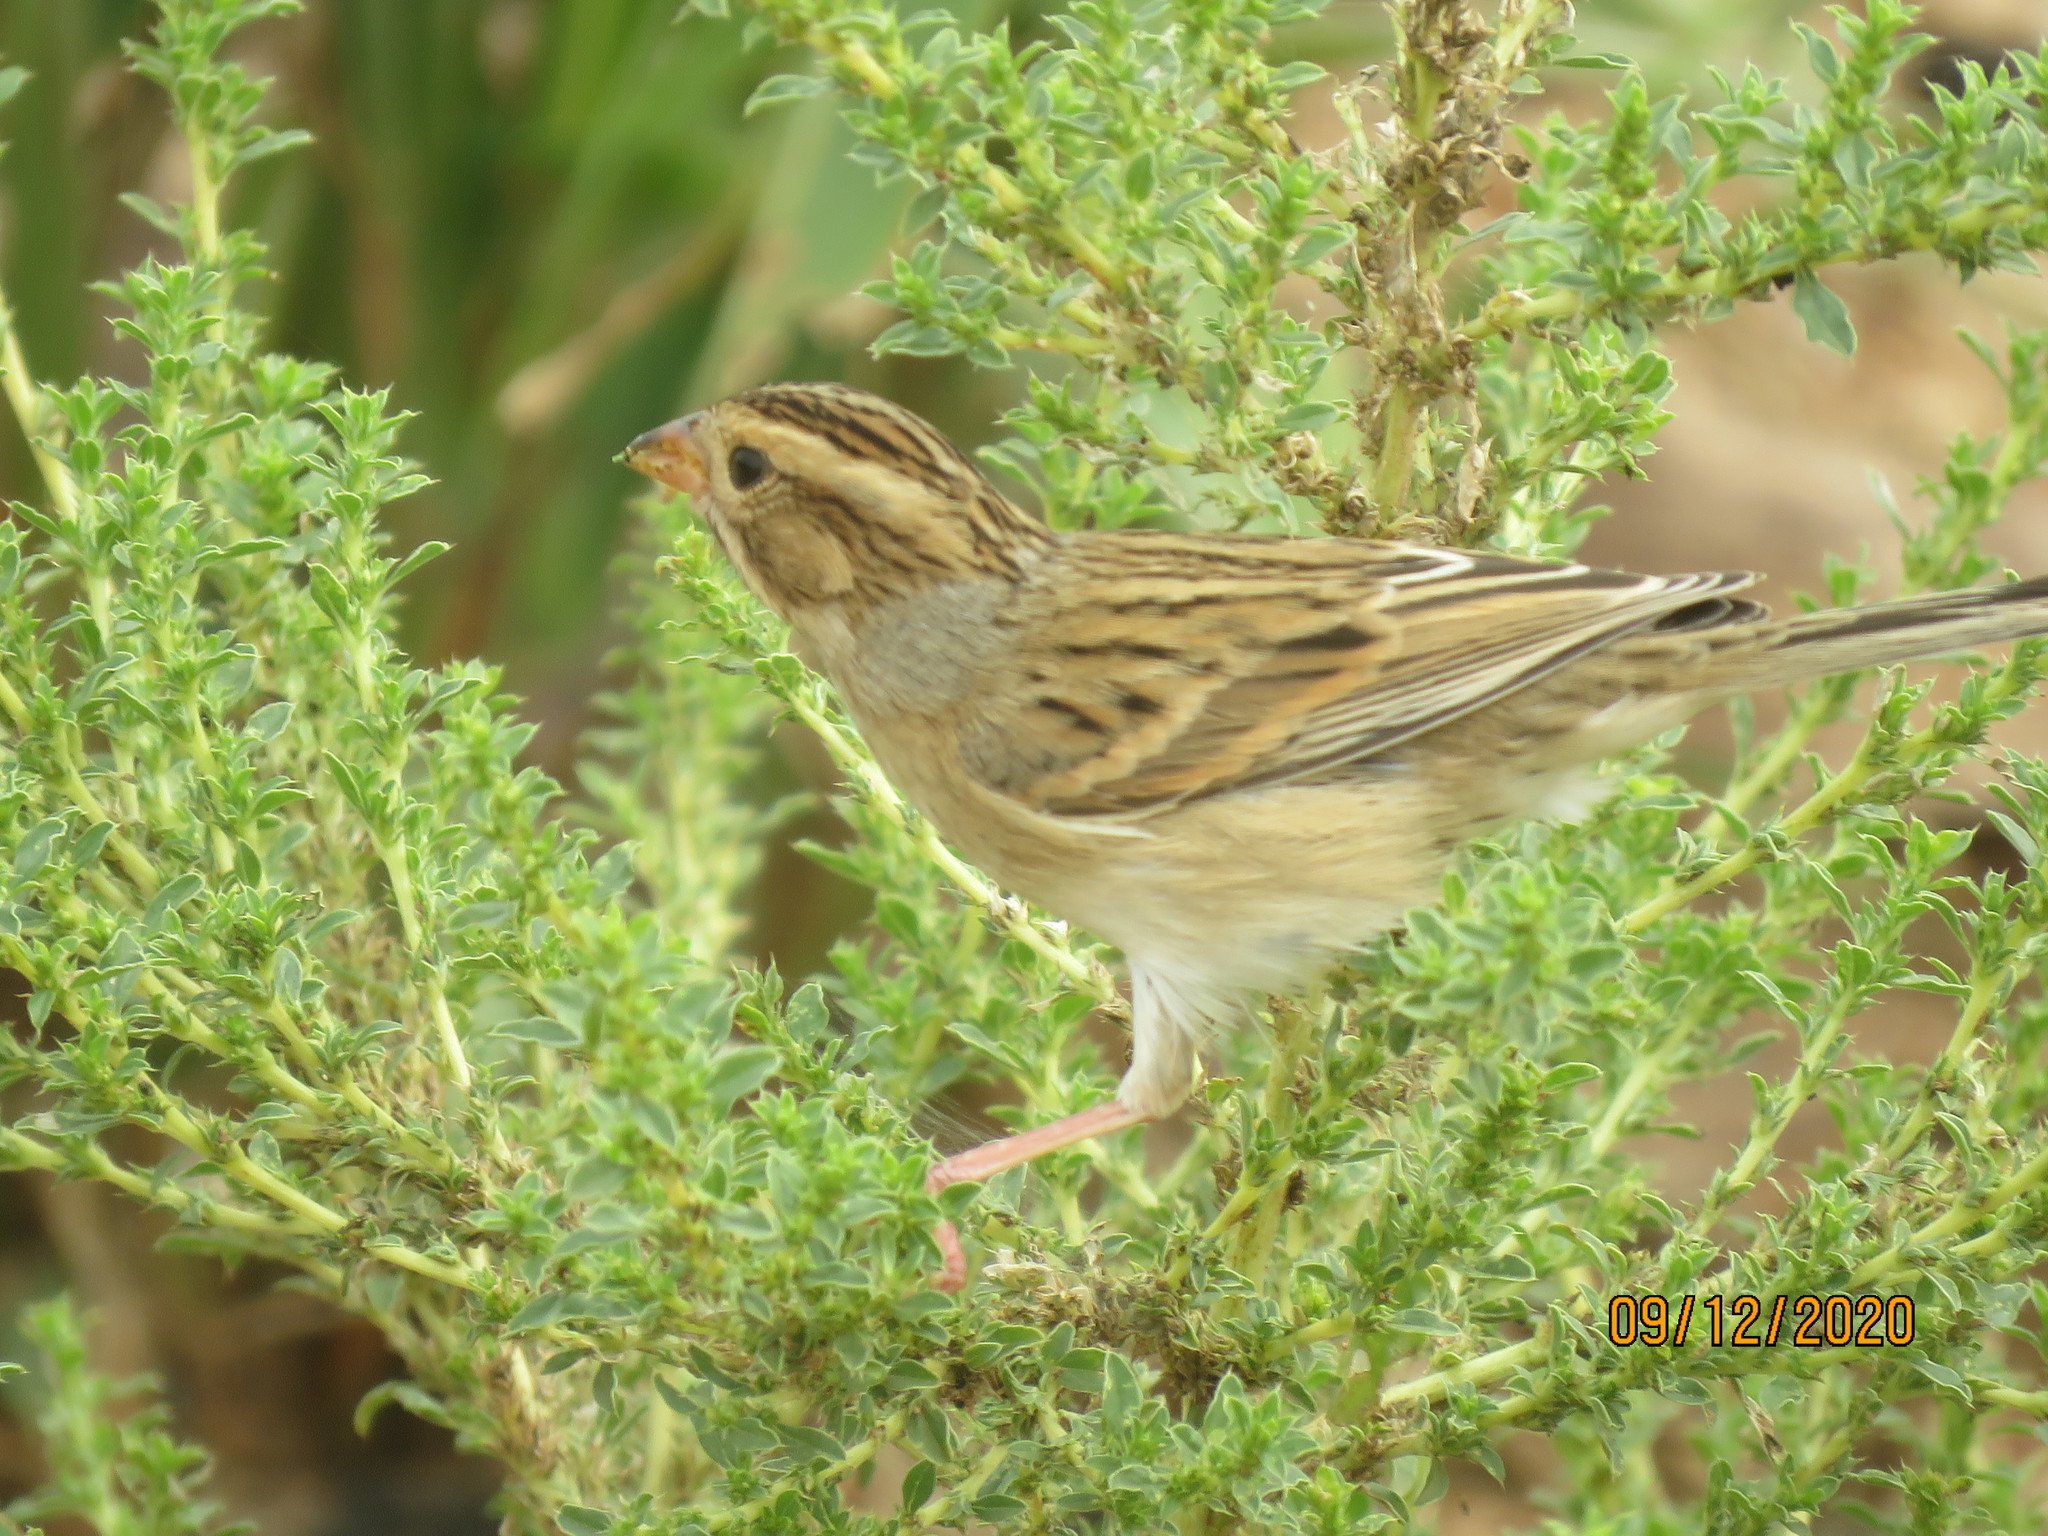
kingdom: Animalia
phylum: Chordata
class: Aves
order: Passeriformes
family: Passerellidae
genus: Spizella
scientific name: Spizella pallida
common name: Clay-colored sparrow
